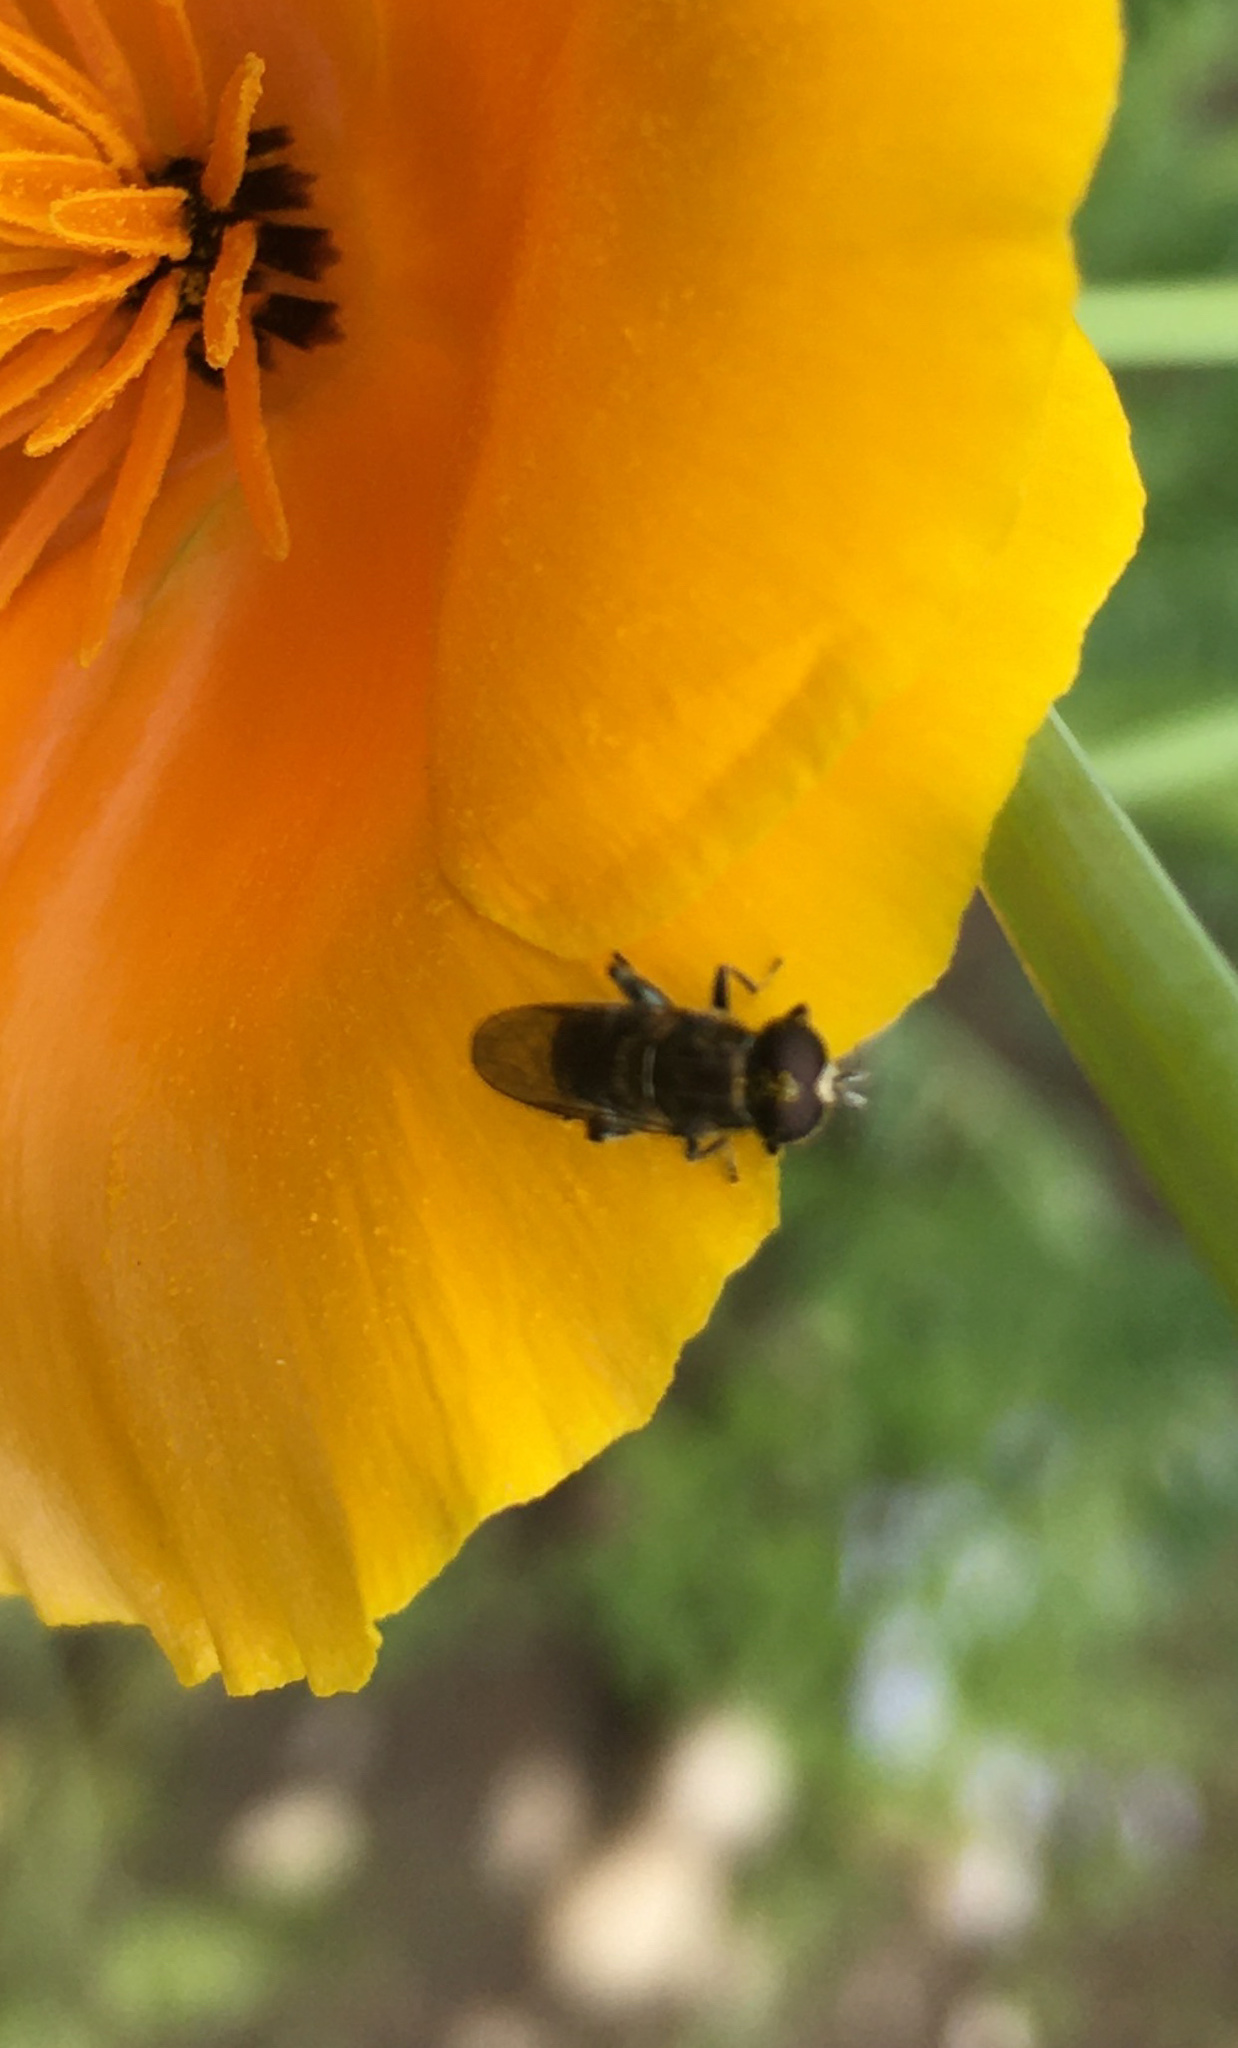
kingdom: Animalia
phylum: Arthropoda
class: Insecta
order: Diptera
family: Syrphidae
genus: Eumerus
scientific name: Eumerus
